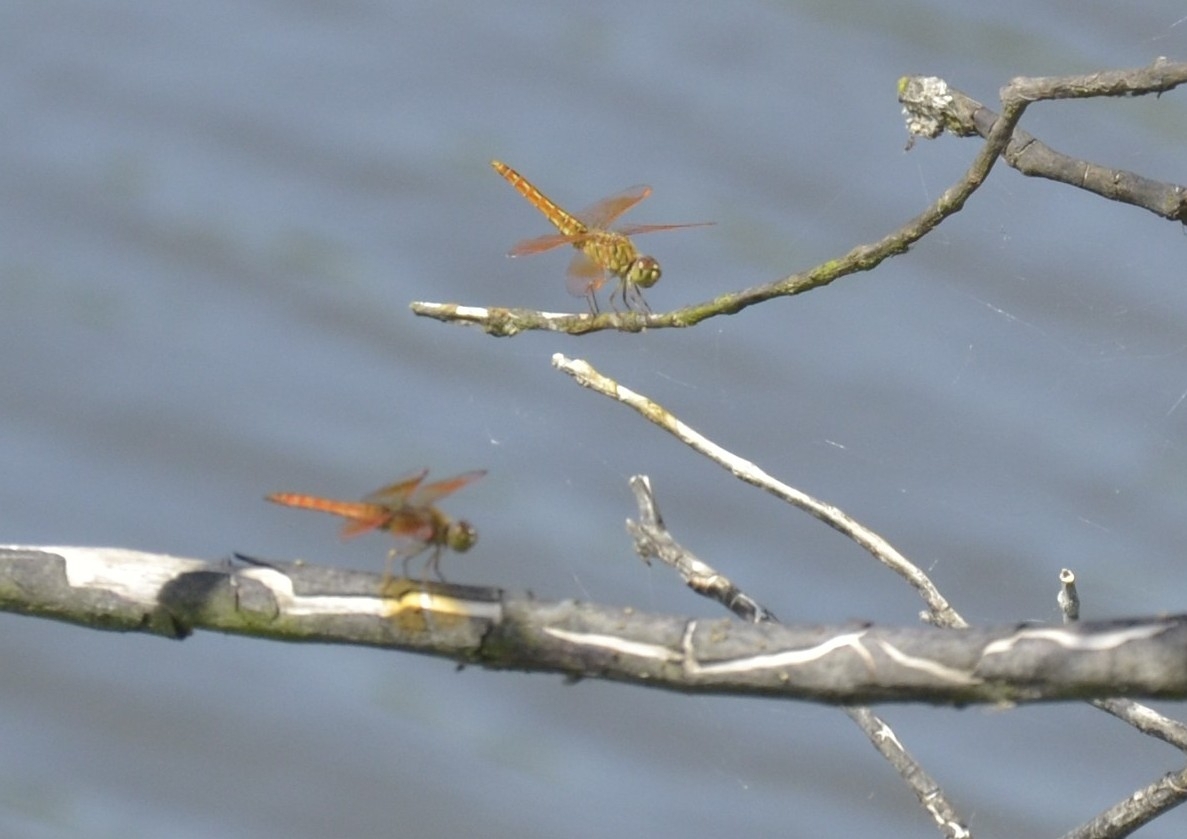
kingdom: Animalia
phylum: Arthropoda
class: Insecta
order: Odonata
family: Libellulidae
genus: Brachythemis
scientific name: Brachythemis contaminata
